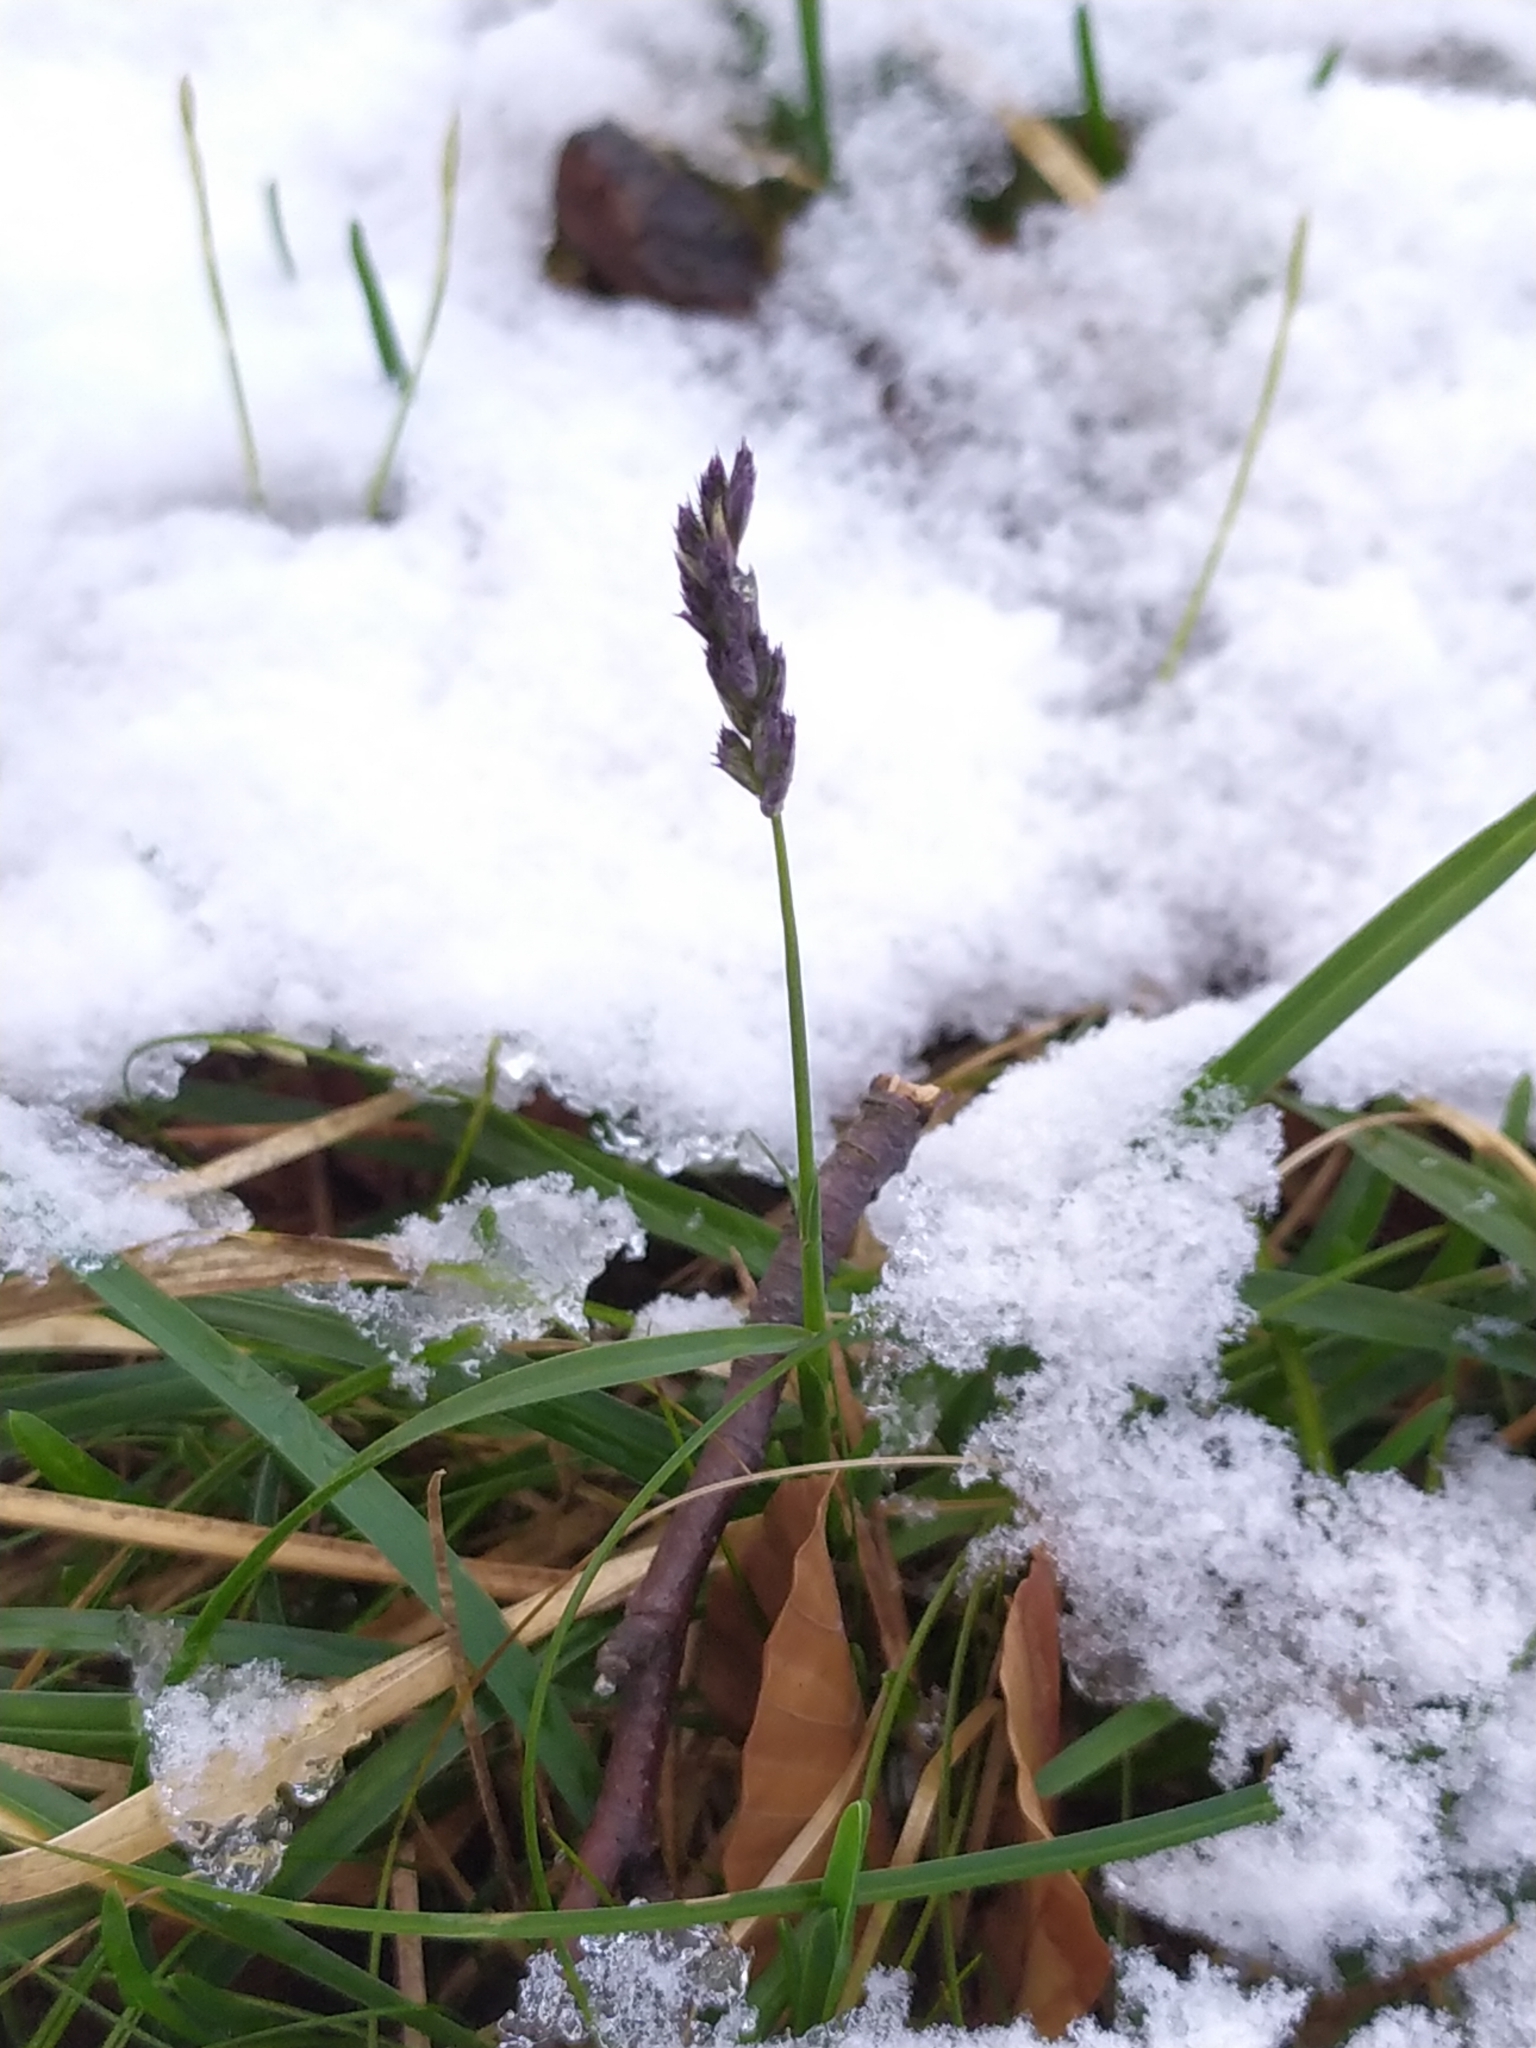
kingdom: Plantae
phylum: Tracheophyta
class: Liliopsida
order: Poales
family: Poaceae
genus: Sesleria
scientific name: Sesleria albicans
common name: Blue moor-grass
